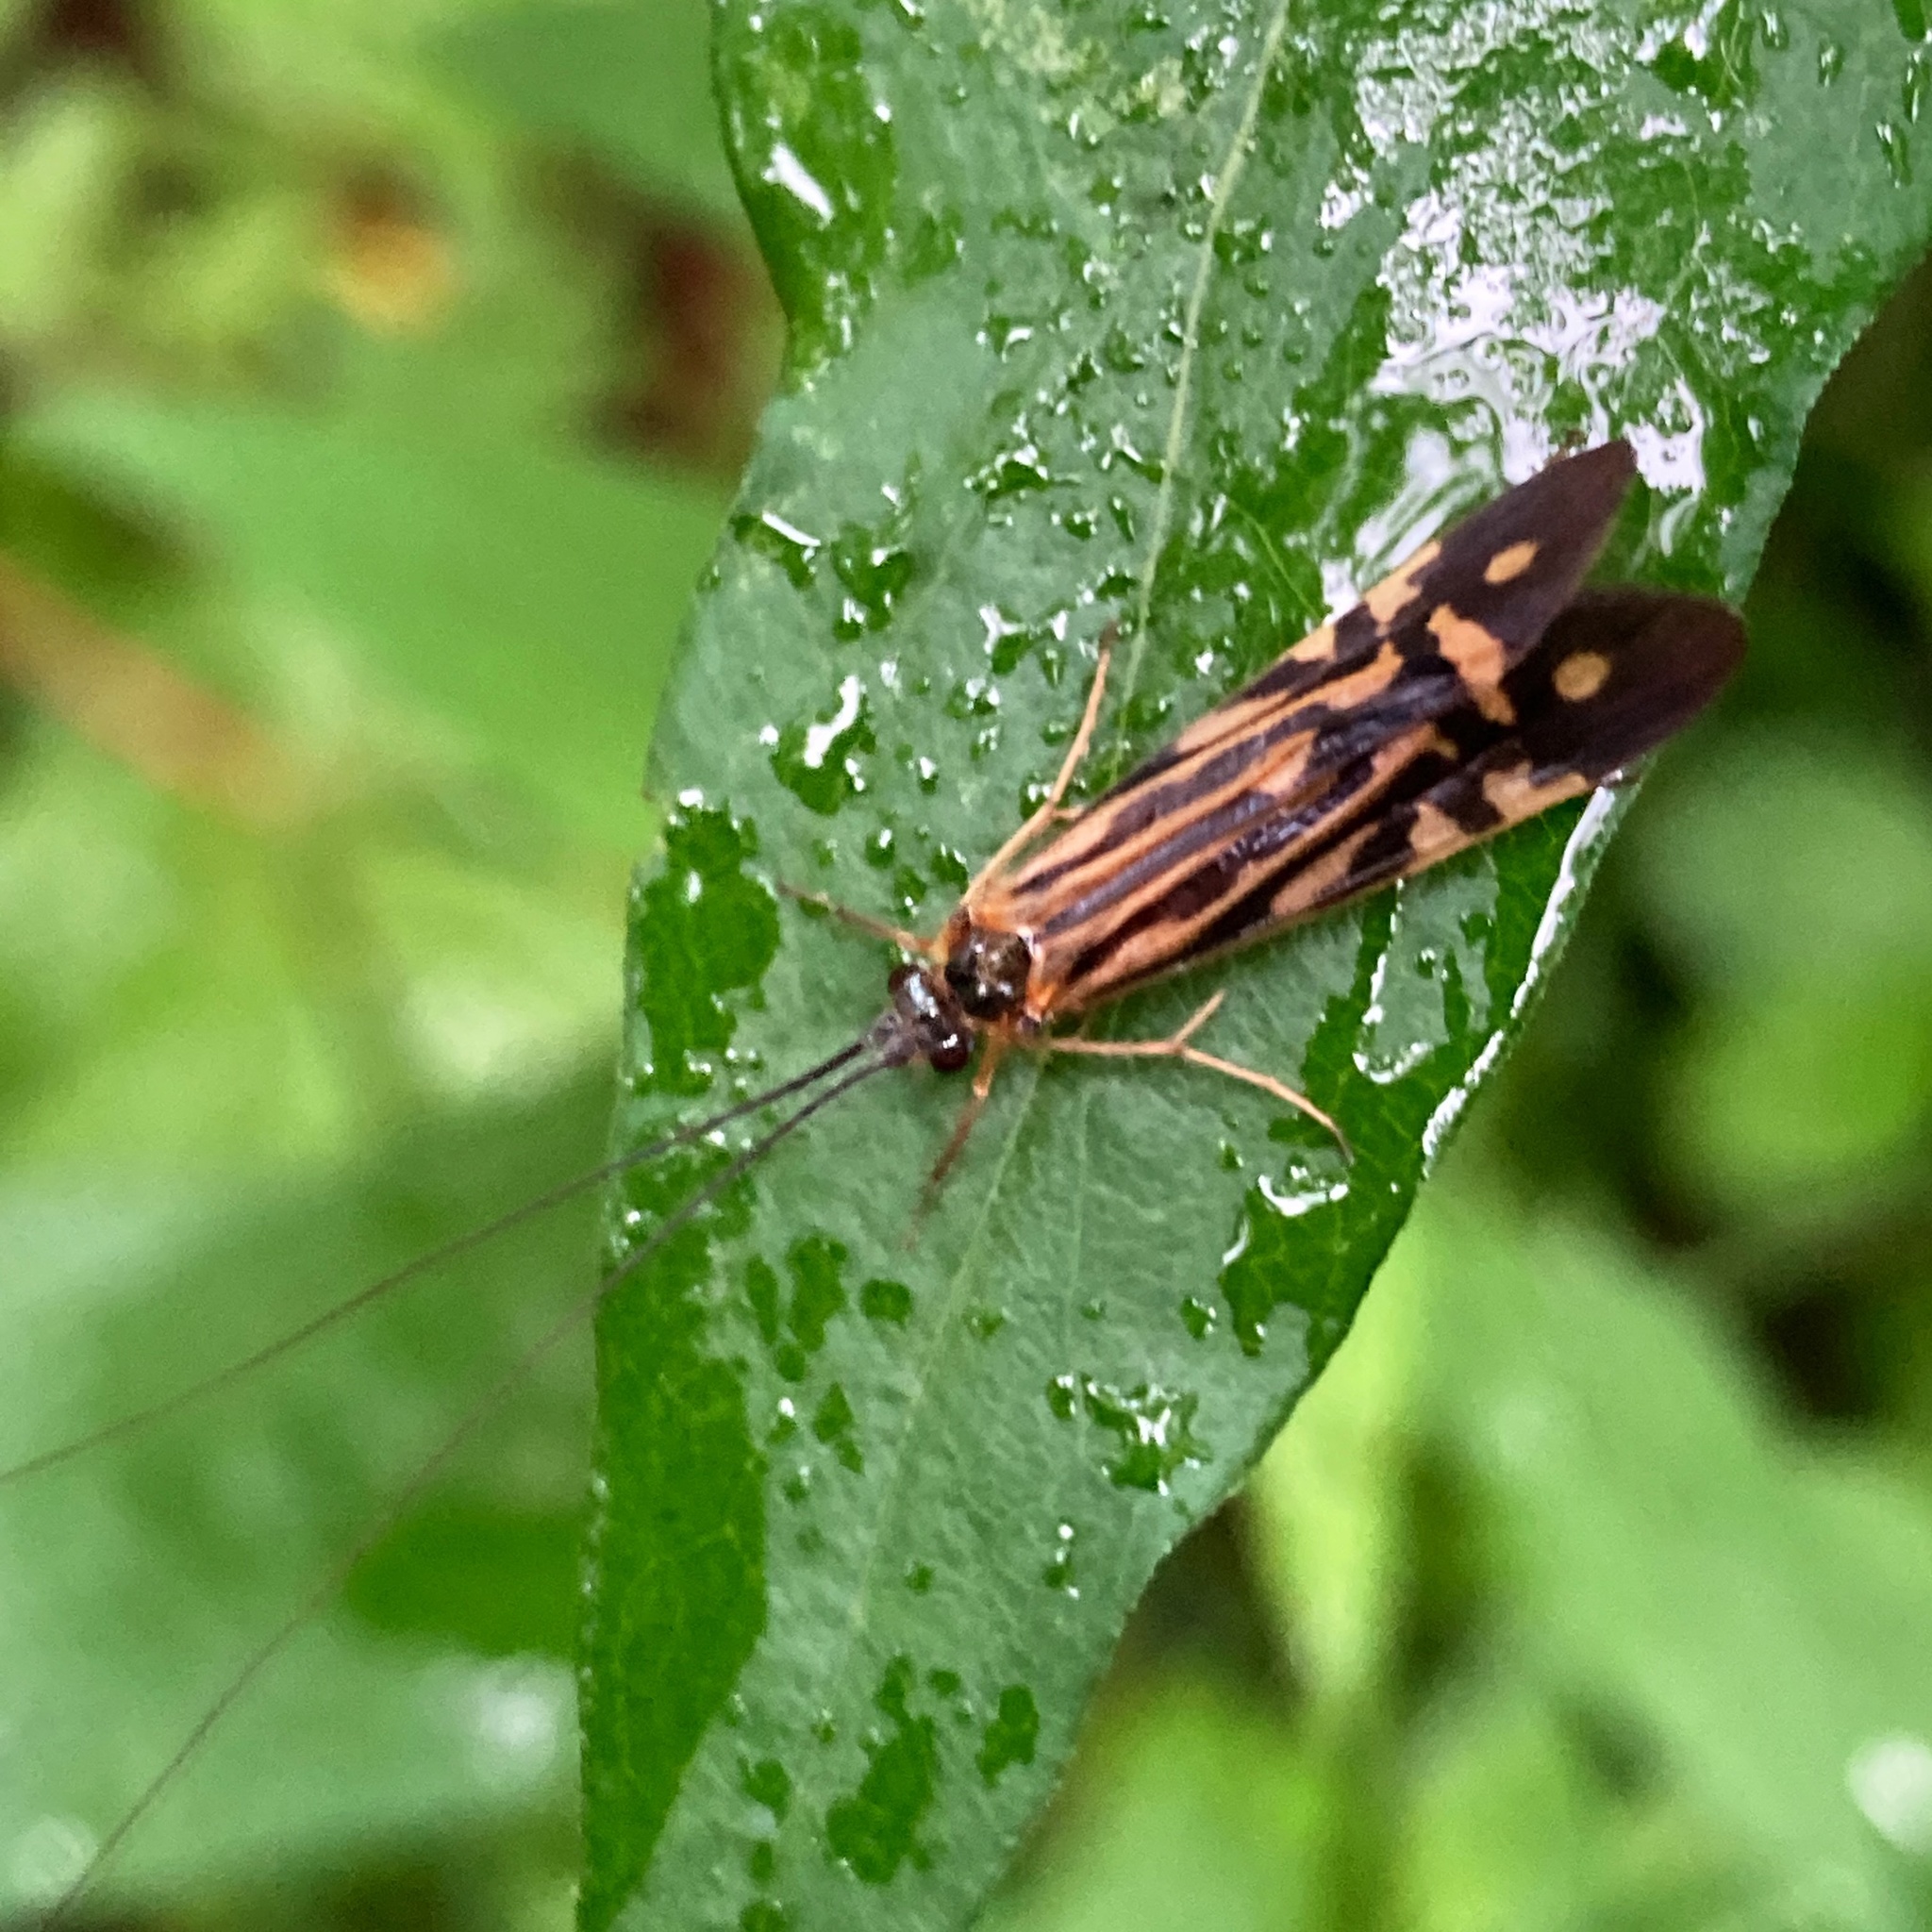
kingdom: Animalia
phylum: Arthropoda
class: Insecta
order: Trichoptera
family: Hydropsychidae
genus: Macrostemum
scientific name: Macrostemum zebratum
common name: Zebra caddisfly
